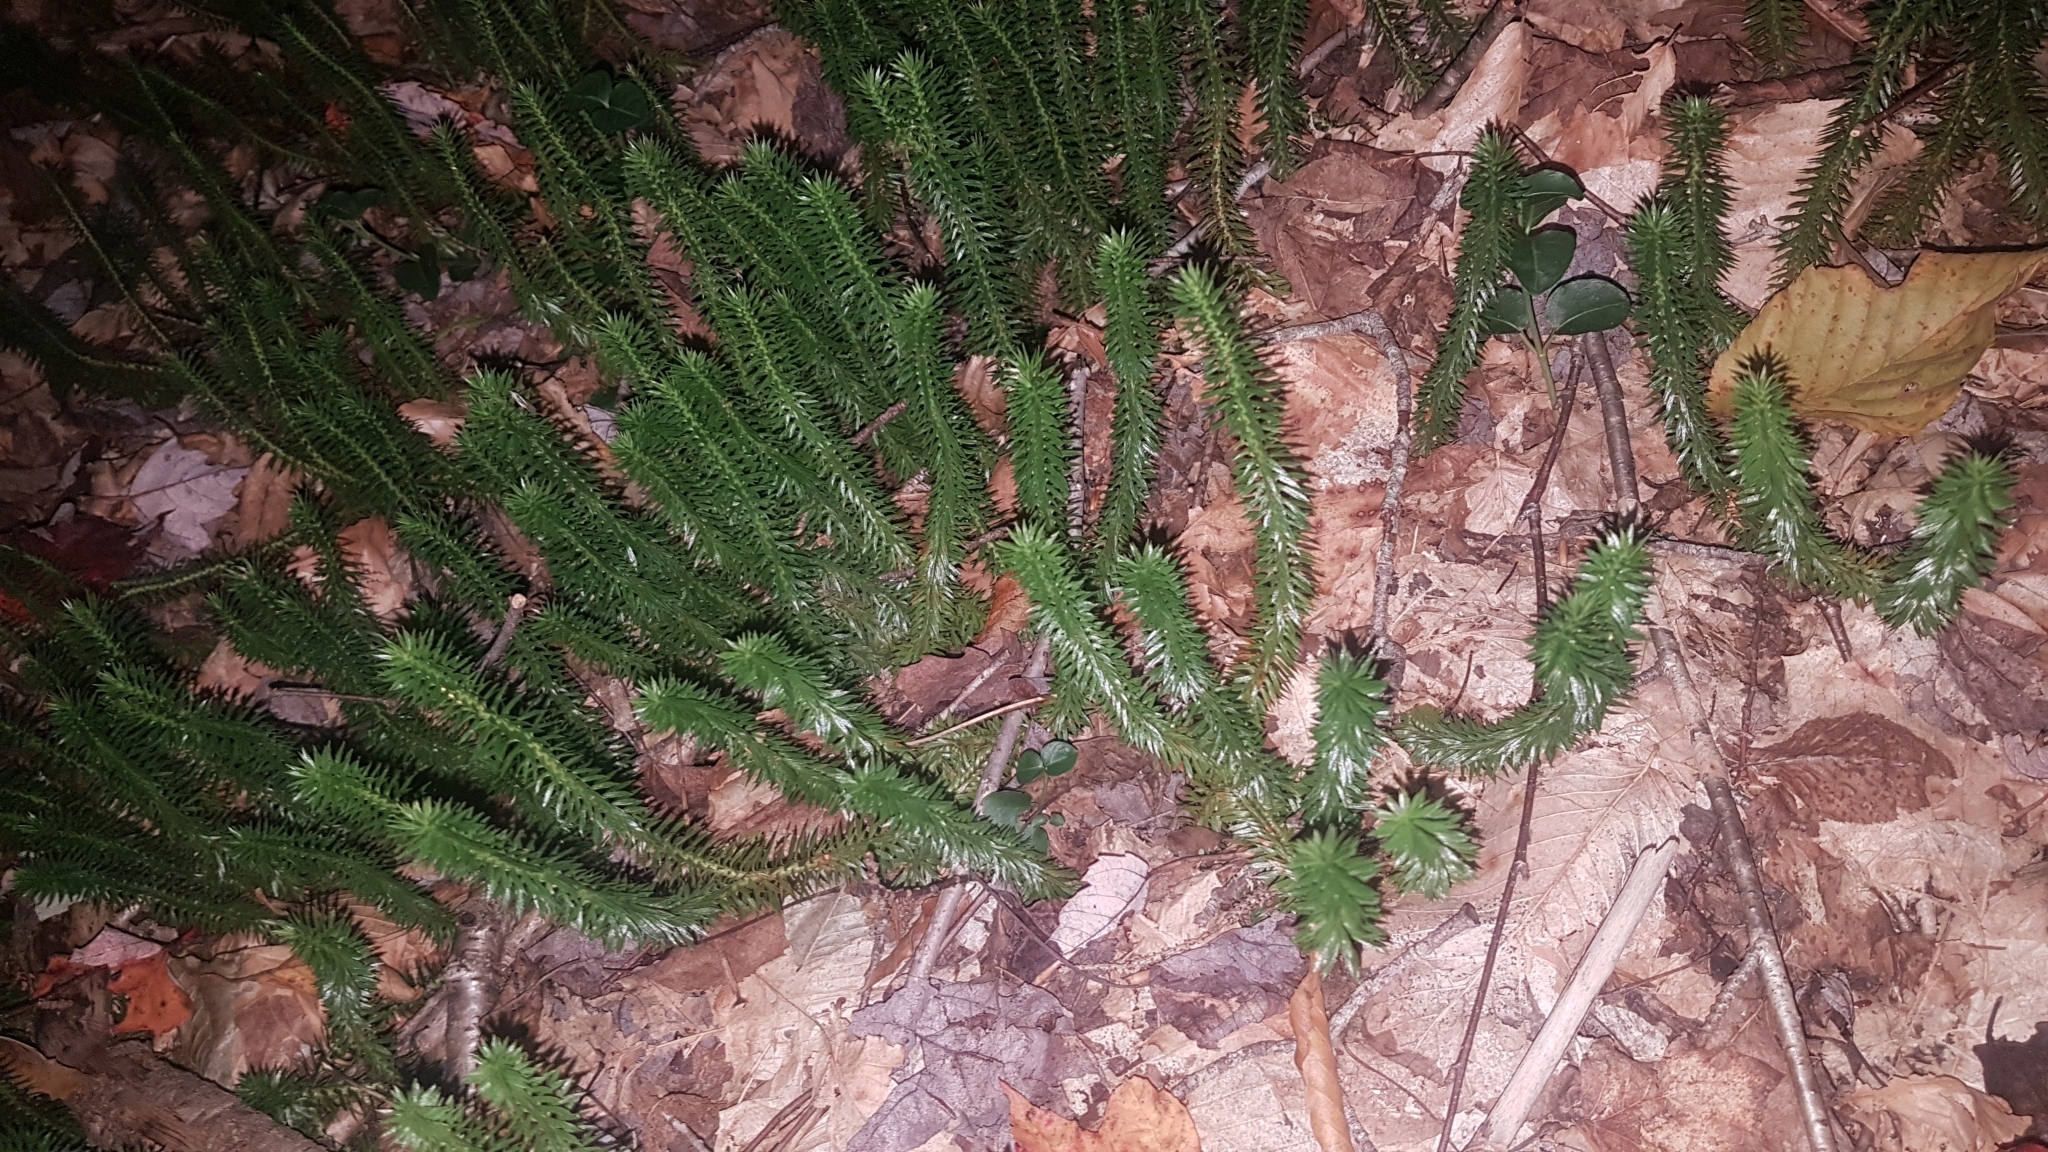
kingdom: Plantae
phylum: Tracheophyta
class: Lycopodiopsida
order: Lycopodiales
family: Lycopodiaceae
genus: Huperzia
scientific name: Huperzia lucidula
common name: Shining clubmoss
